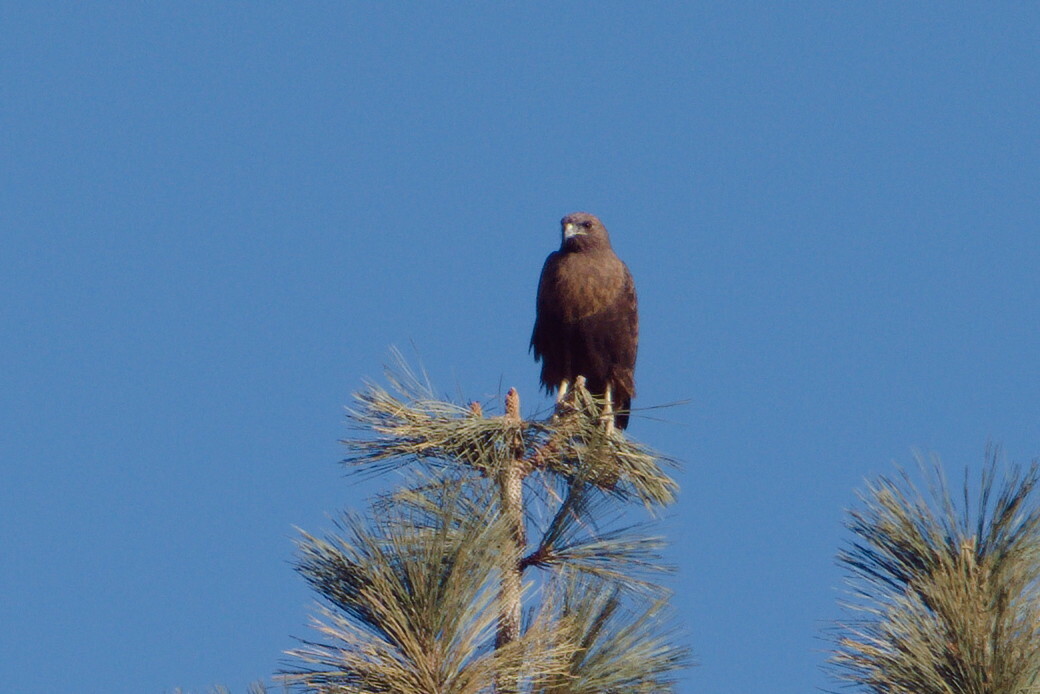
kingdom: Animalia
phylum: Chordata
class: Aves
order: Accipitriformes
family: Accipitridae
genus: Buteo
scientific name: Buteo jamaicensis
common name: Red-tailed hawk
